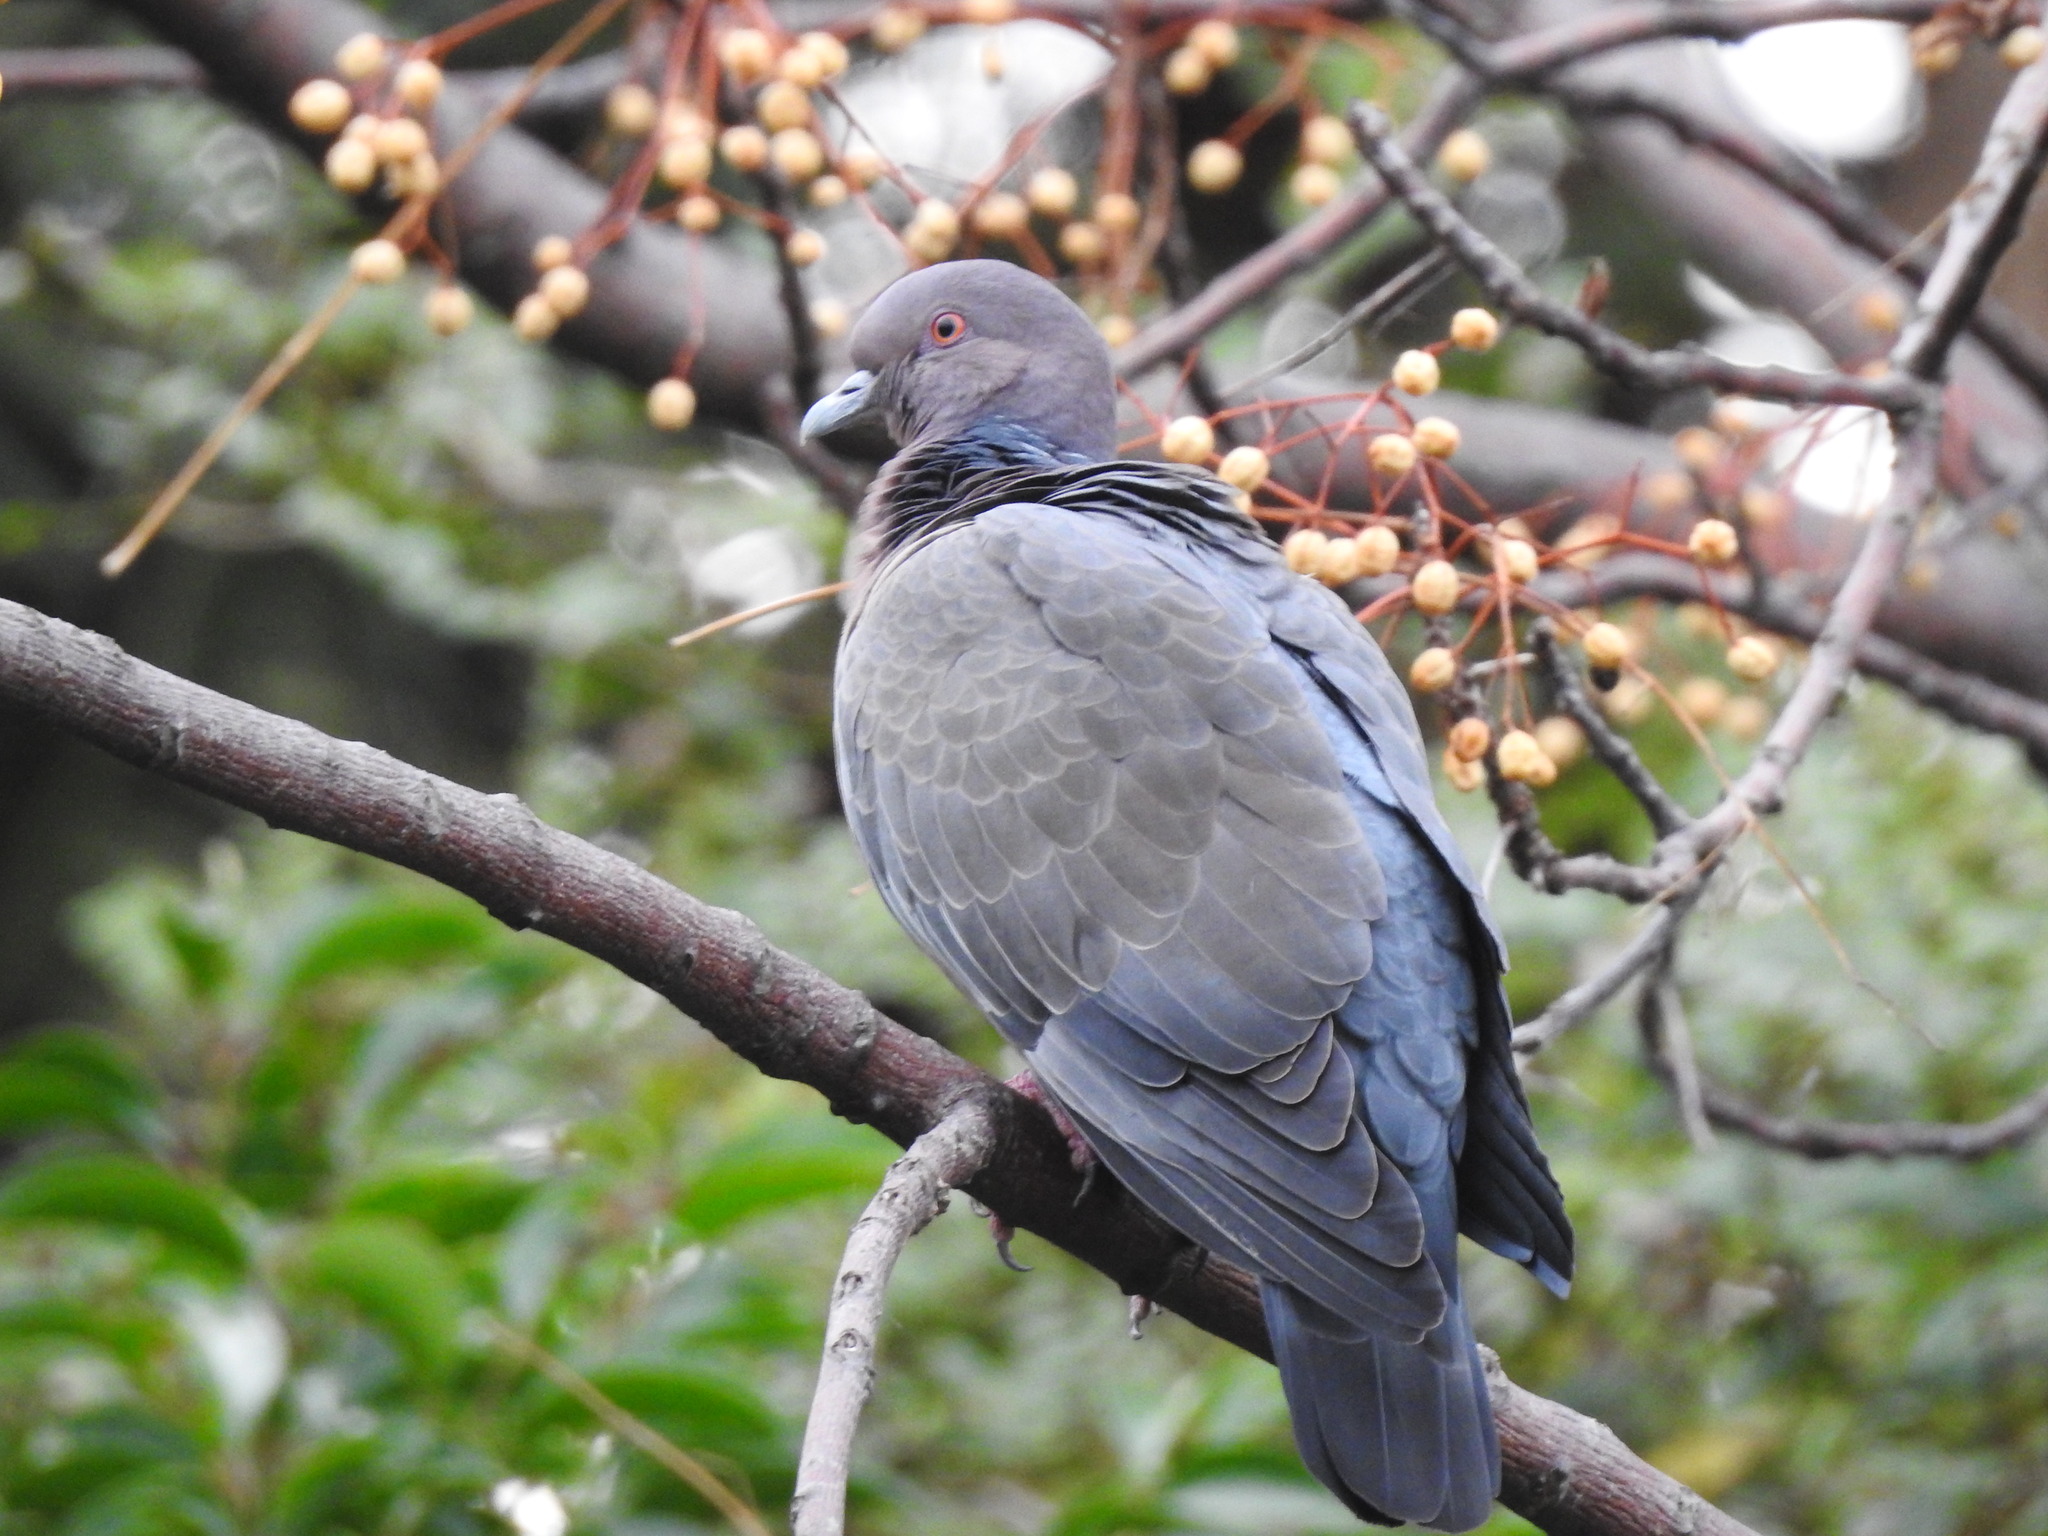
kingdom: Animalia
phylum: Chordata
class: Aves
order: Columbiformes
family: Columbidae
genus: Patagioenas
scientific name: Patagioenas picazuro
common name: Picazuro pigeon
